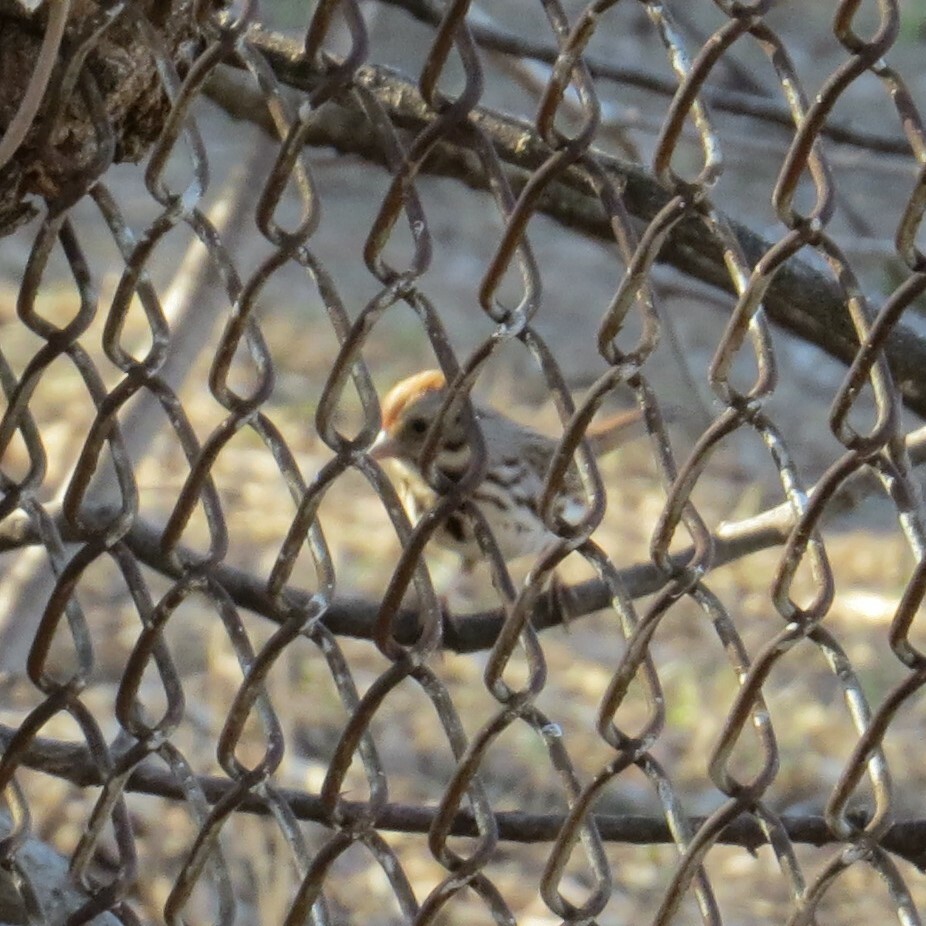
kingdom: Animalia
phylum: Chordata
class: Aves
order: Passeriformes
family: Passerellidae
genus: Melospiza
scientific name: Melospiza melodia
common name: Song sparrow
